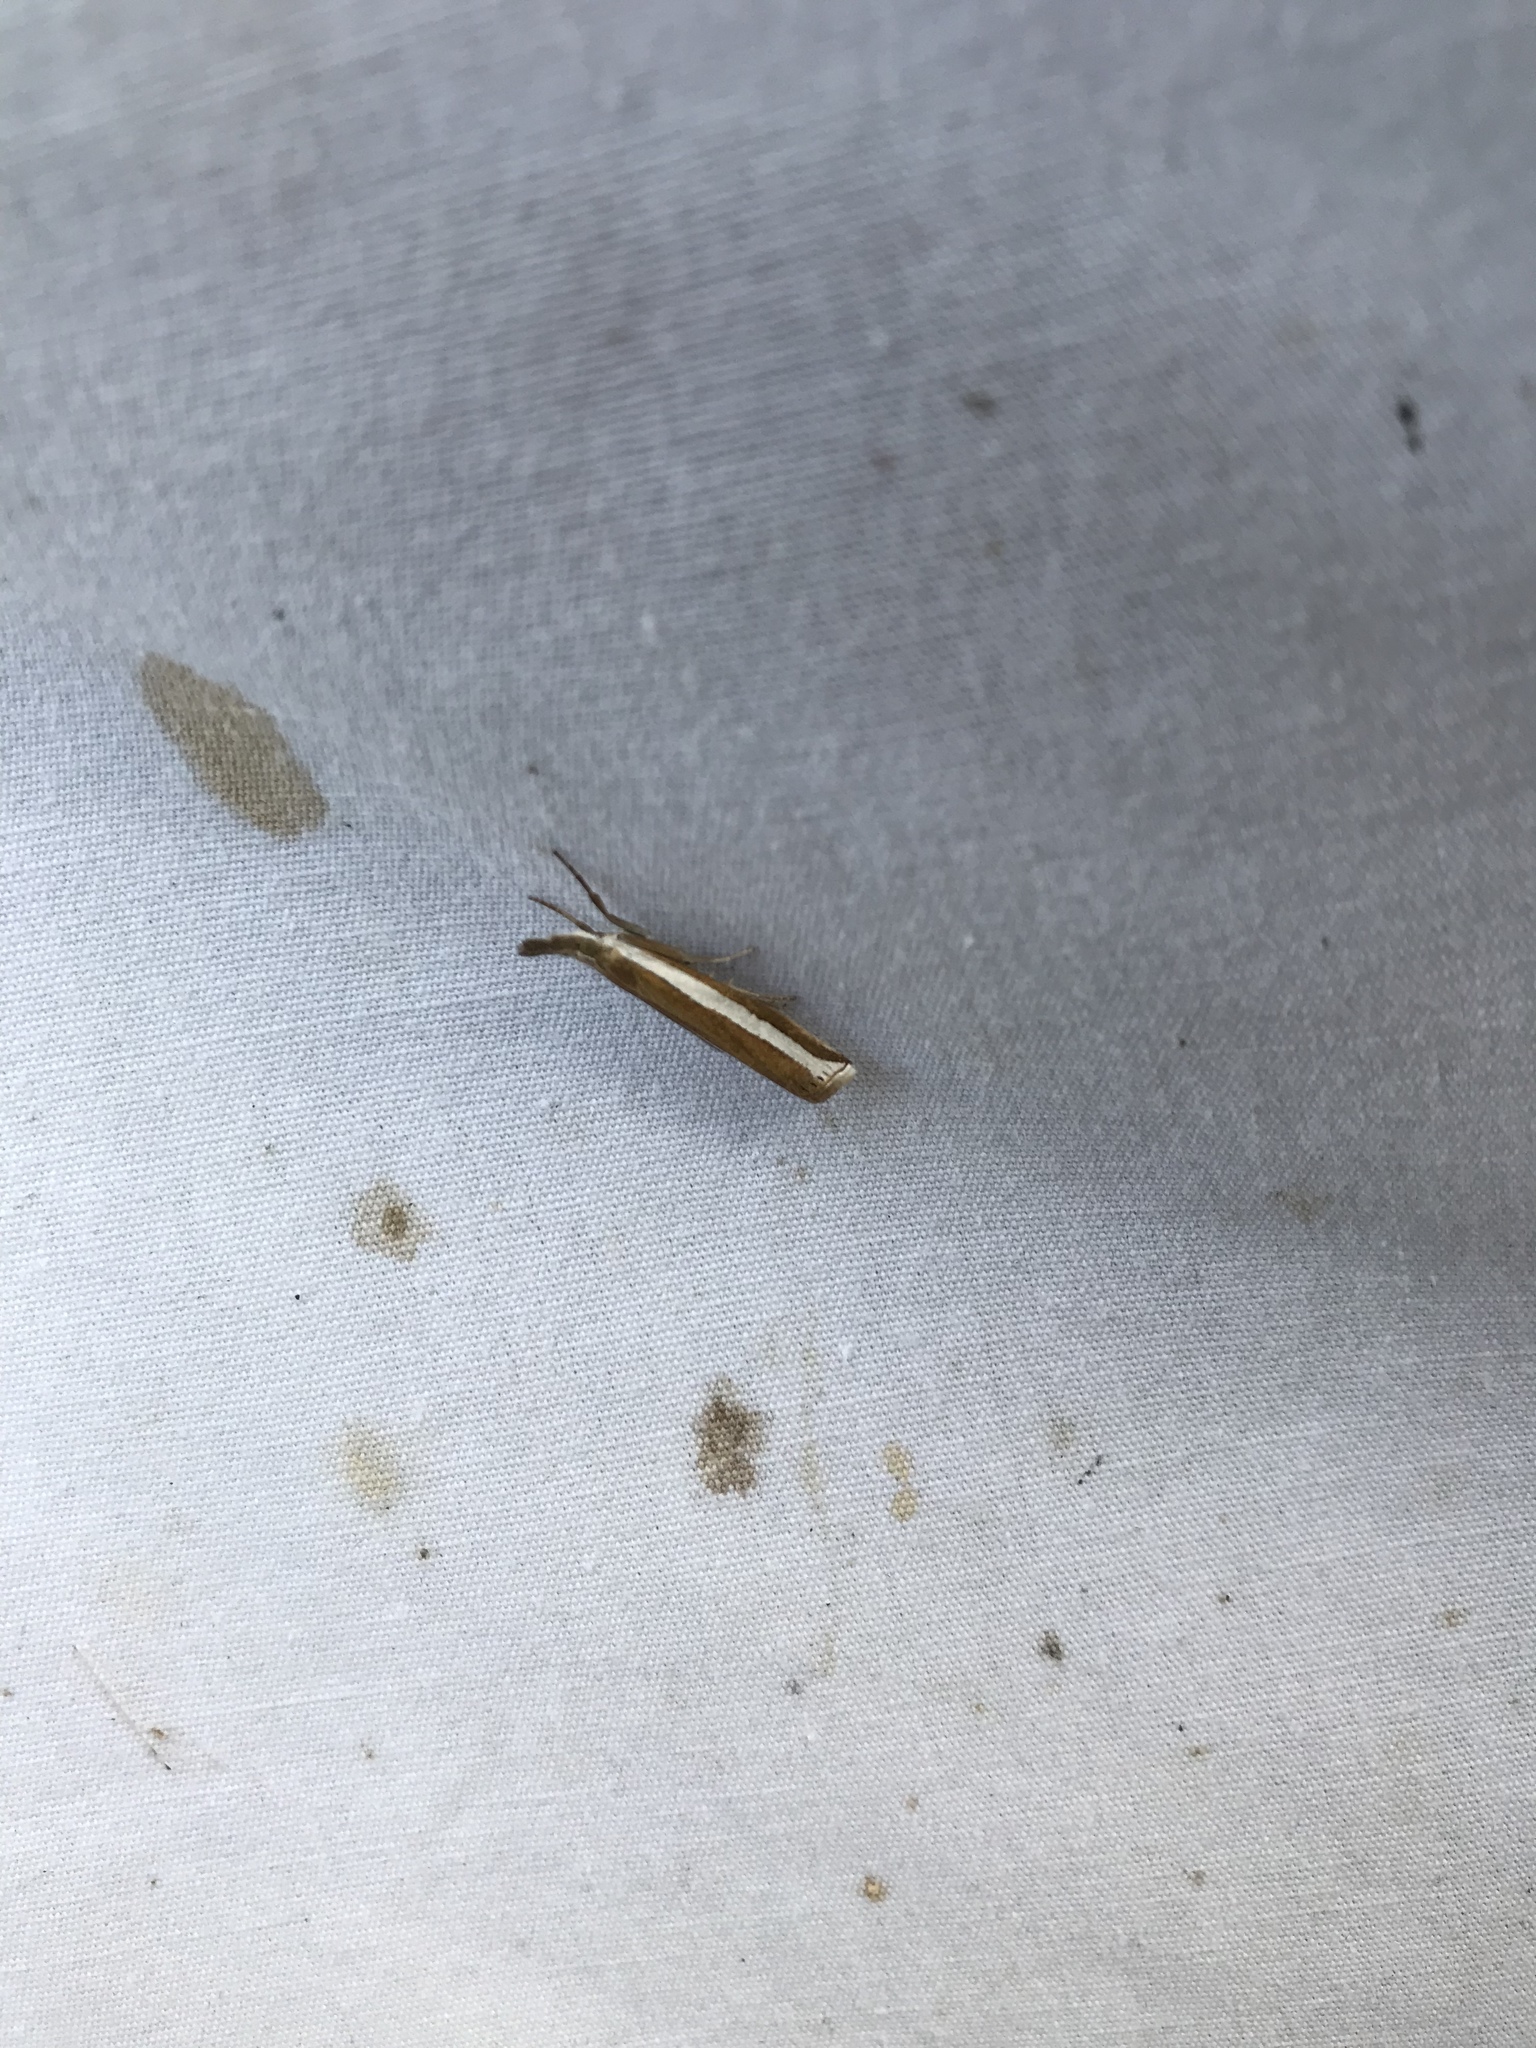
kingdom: Animalia
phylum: Arthropoda
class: Insecta
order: Lepidoptera
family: Crambidae
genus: Crambus
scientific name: Crambus unistriatellus
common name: Wide-stripe grass-veneer moth
